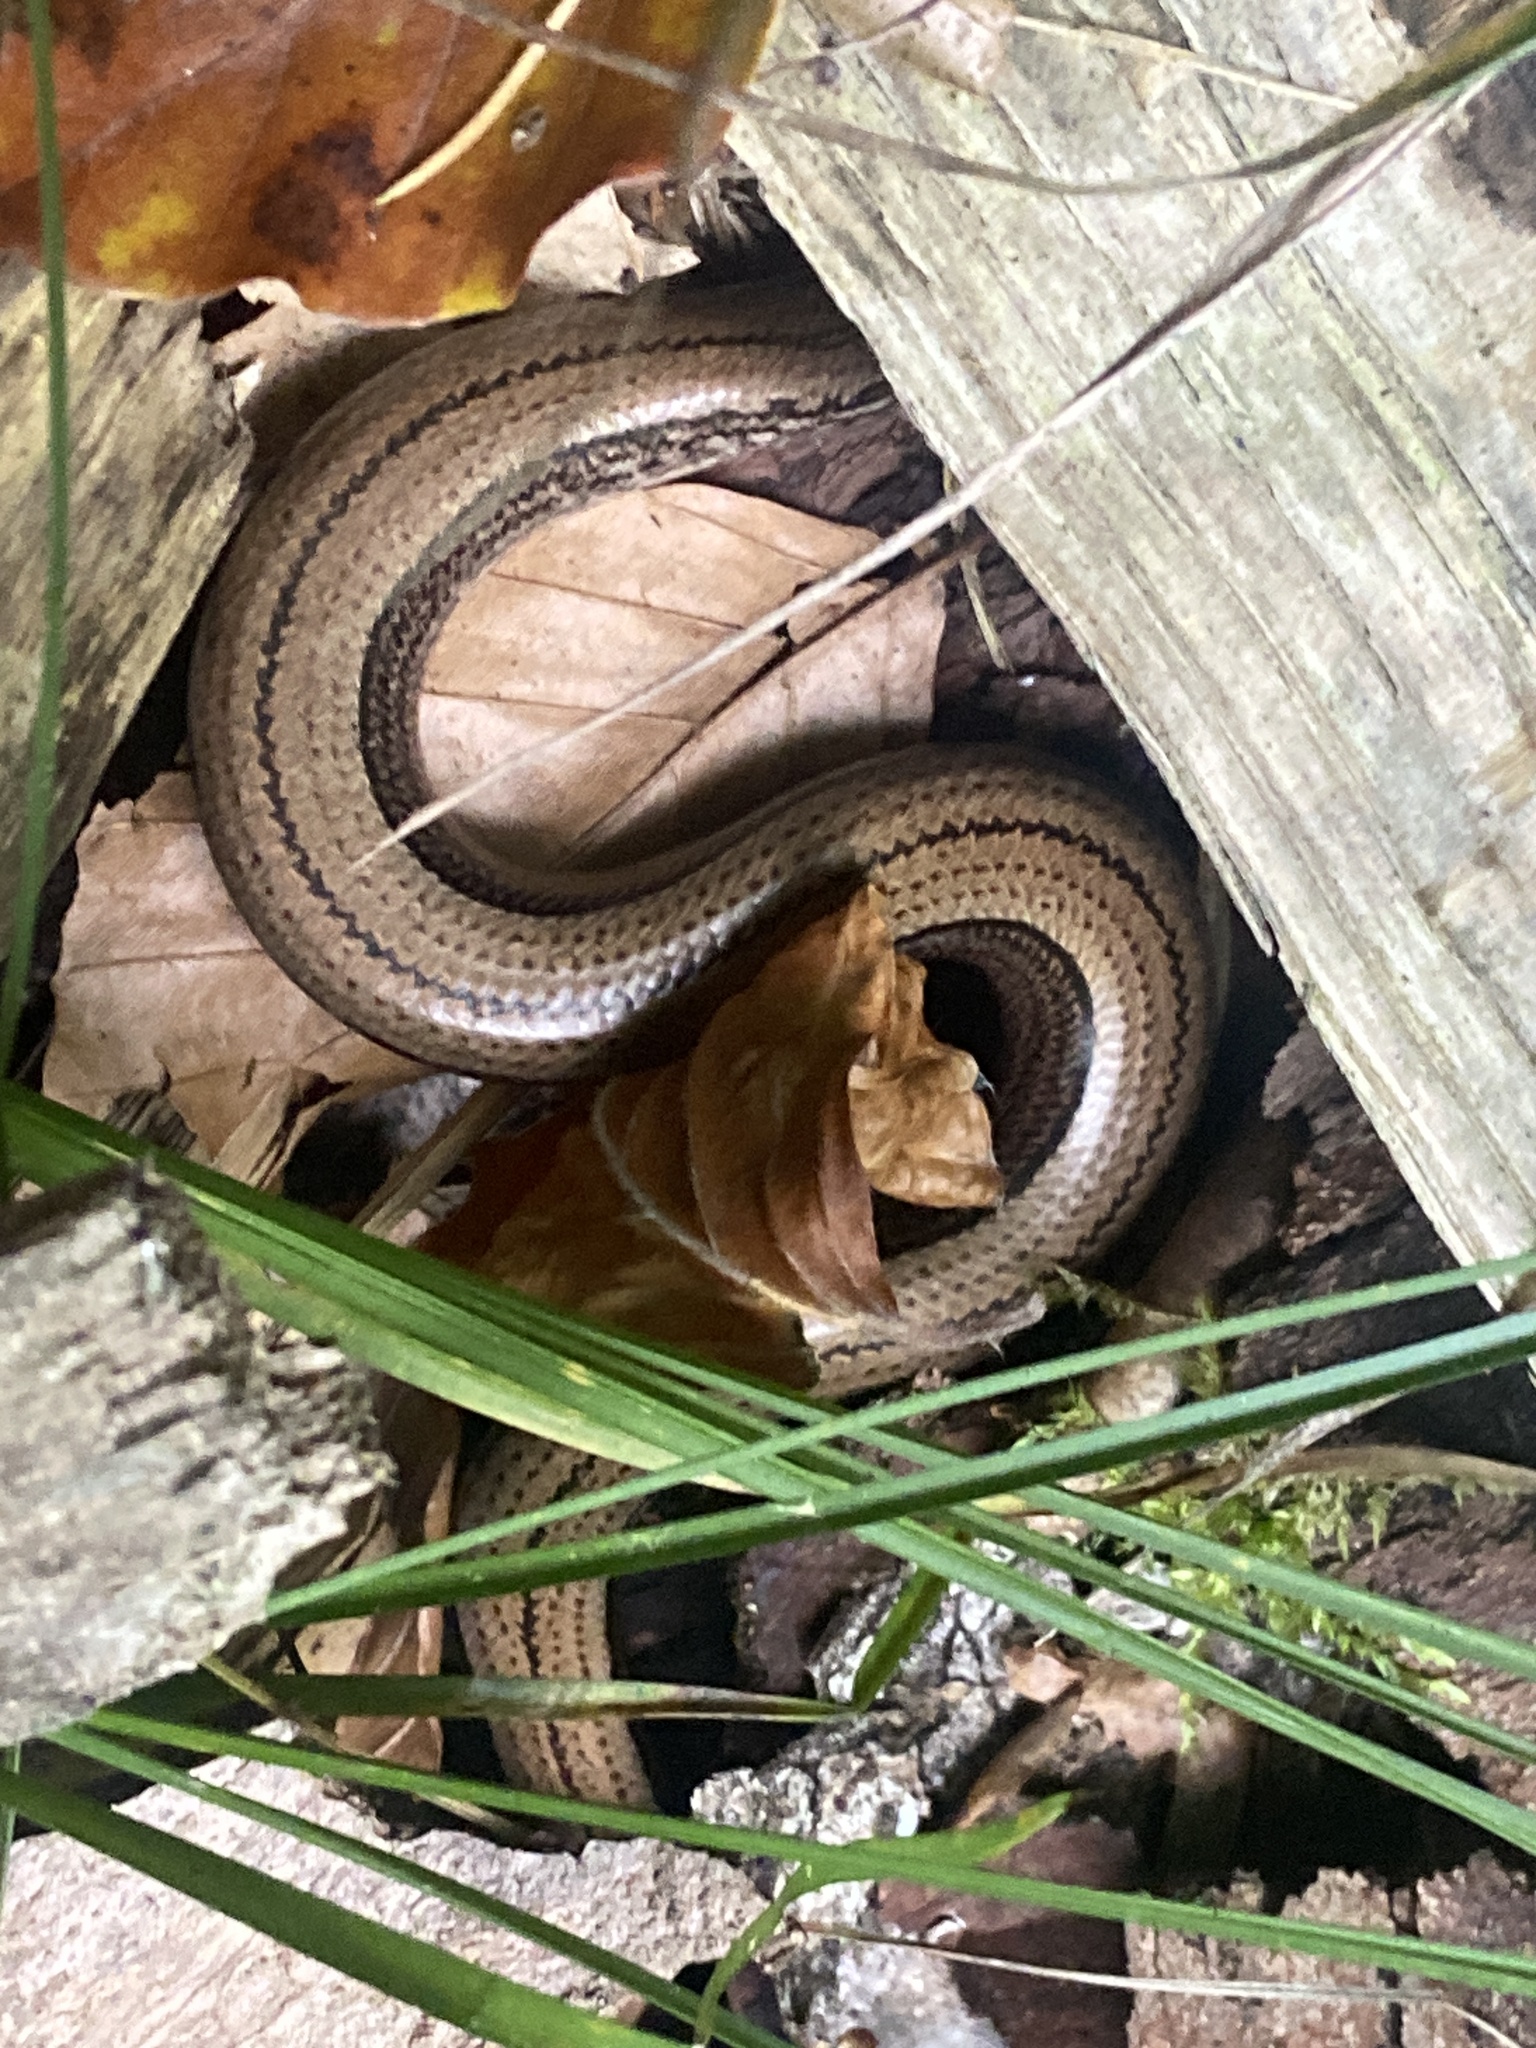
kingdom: Animalia
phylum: Chordata
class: Squamata
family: Anguidae
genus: Anguis
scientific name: Anguis fragilis
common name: Slow worm
